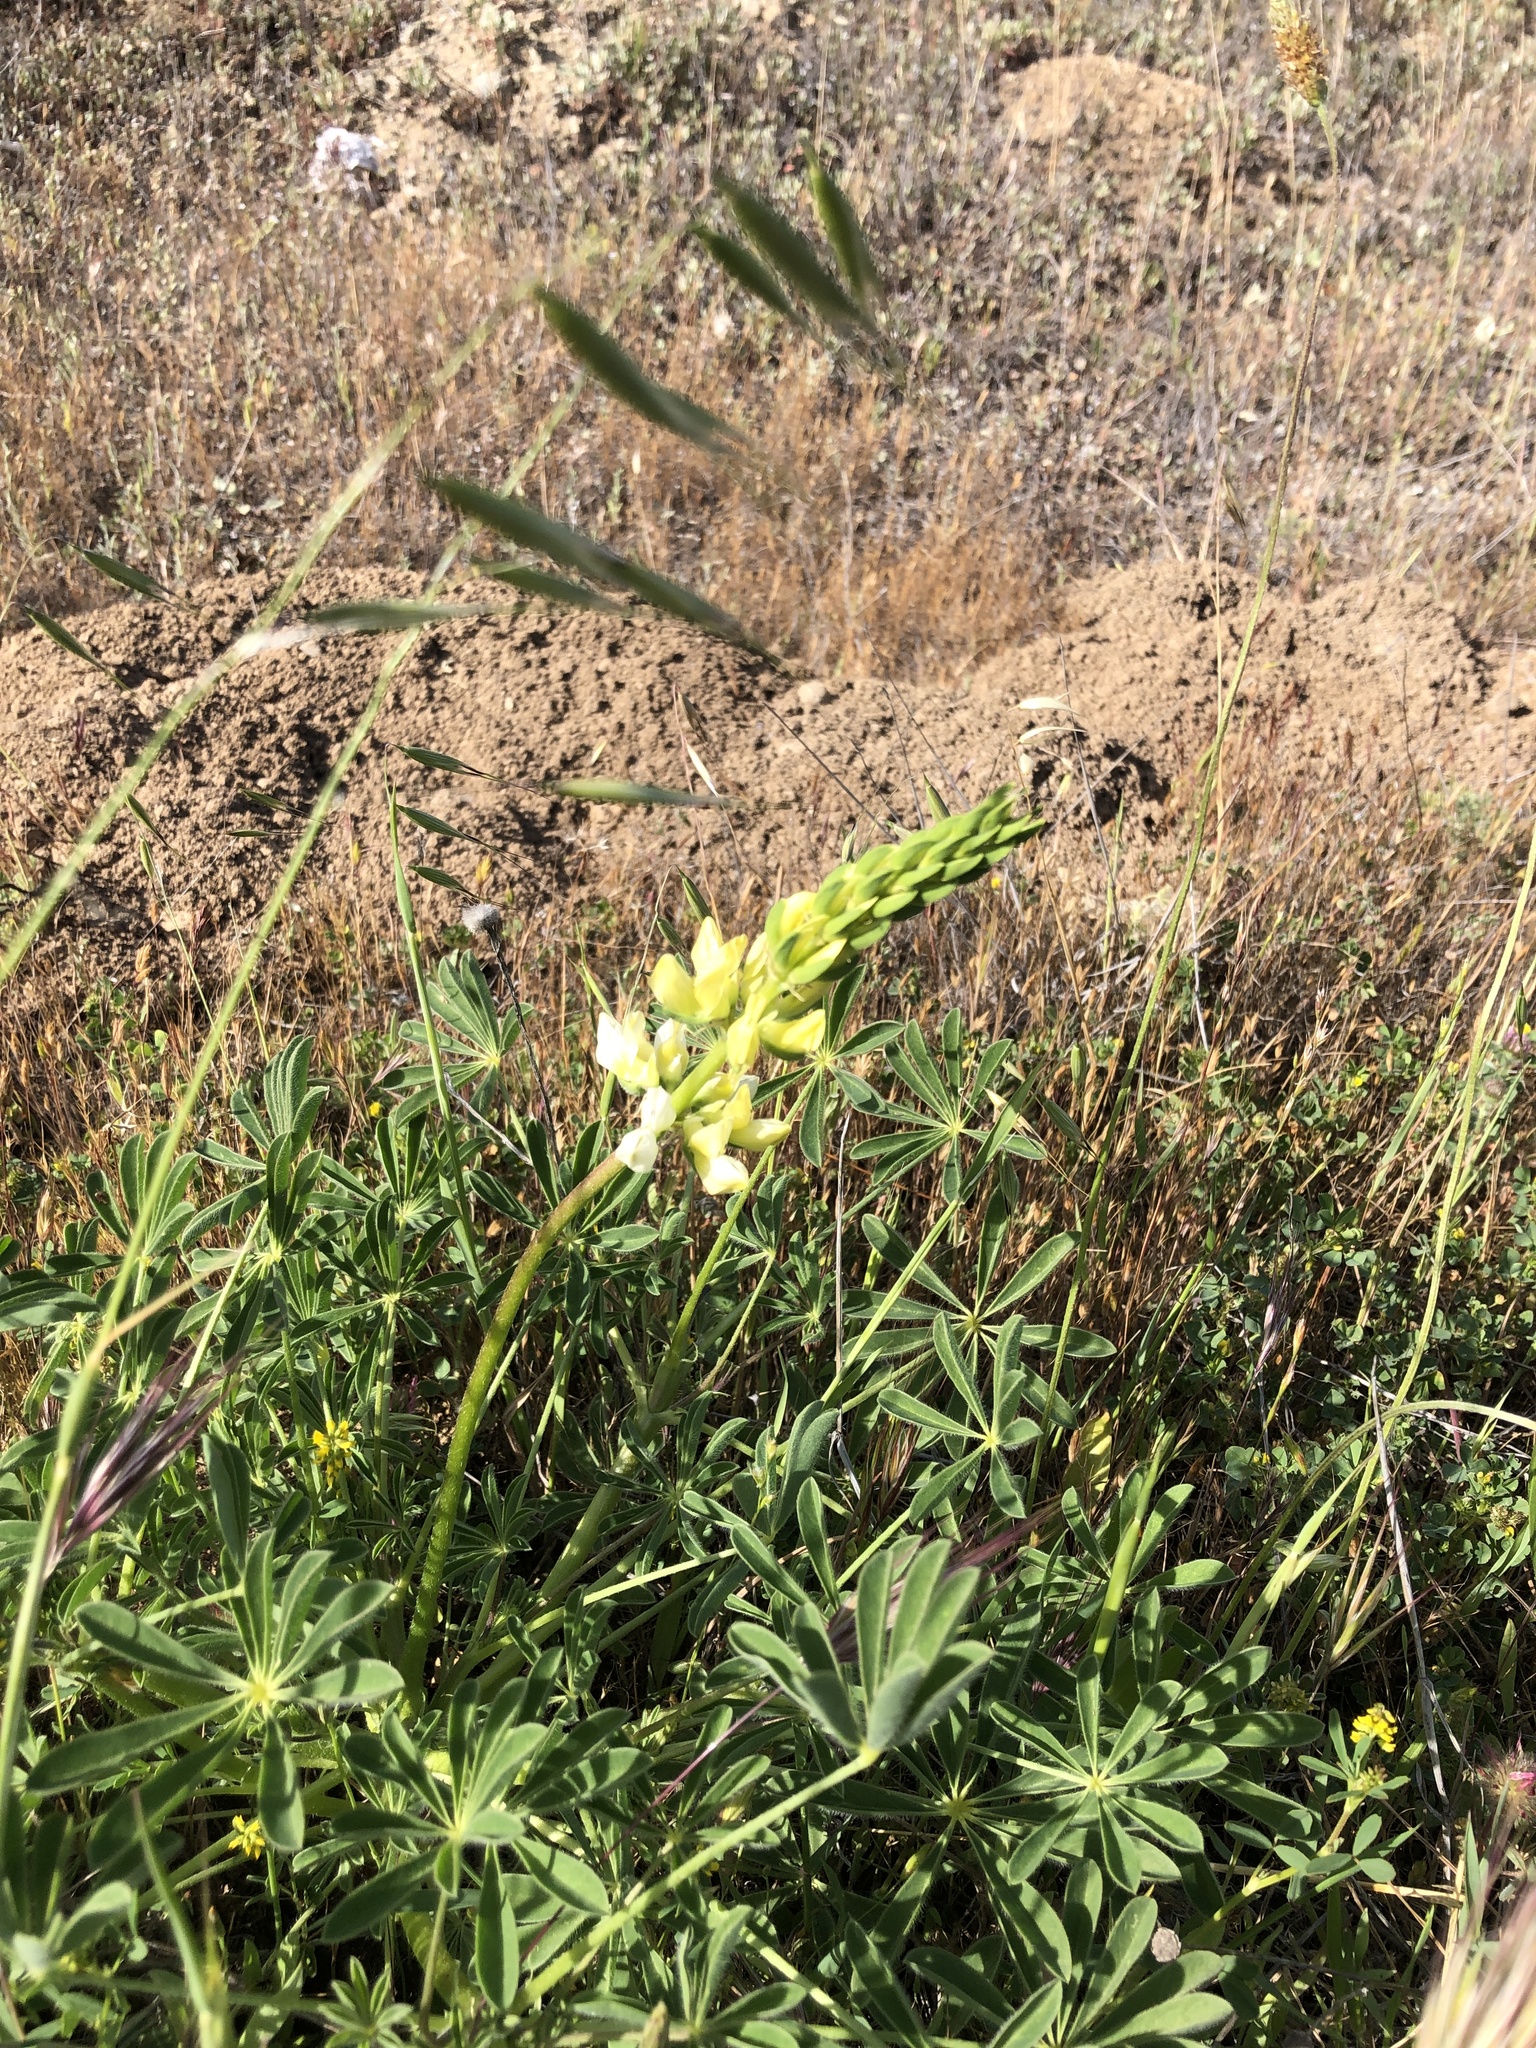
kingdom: Plantae
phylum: Tracheophyta
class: Magnoliopsida
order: Fabales
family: Fabaceae
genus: Lupinus
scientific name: Lupinus microcarpus
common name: Chick lupine
